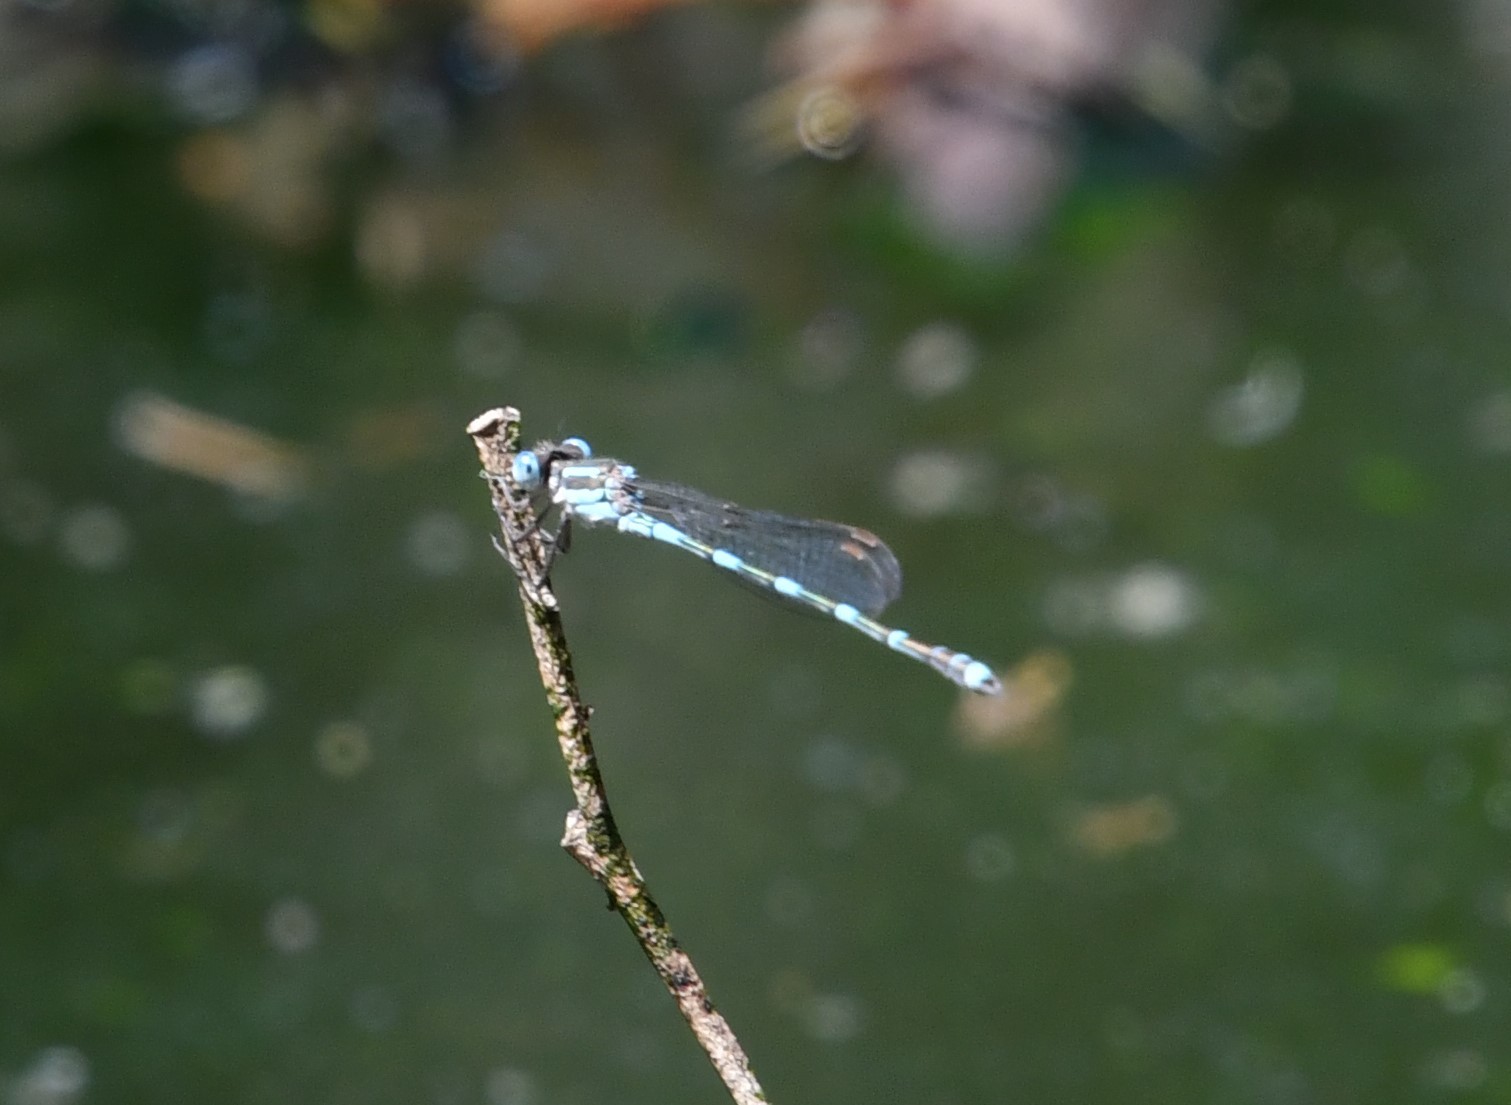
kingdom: Animalia
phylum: Arthropoda
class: Insecta
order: Odonata
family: Lestidae
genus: Austrolestes
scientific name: Austrolestes leda
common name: Wandering ringtail
